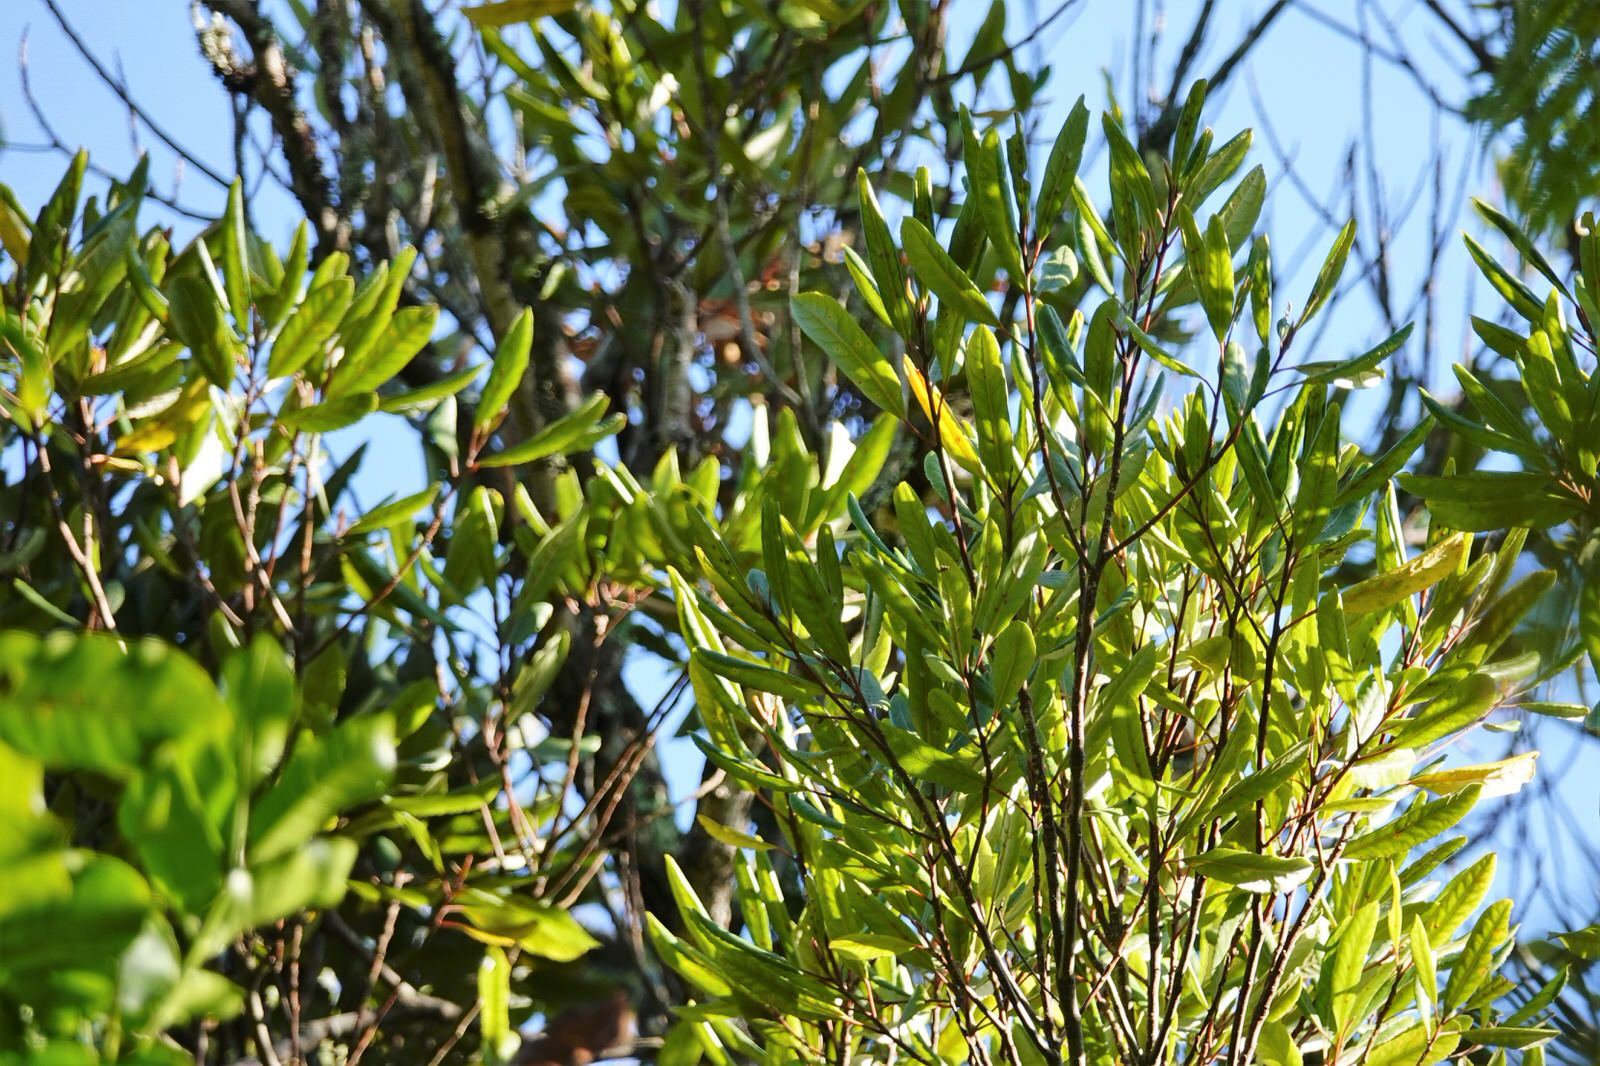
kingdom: Plantae
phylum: Tracheophyta
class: Magnoliopsida
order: Oxalidales
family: Elaeocarpaceae
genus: Elaeocarpus
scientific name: Elaeocarpus dentatus
